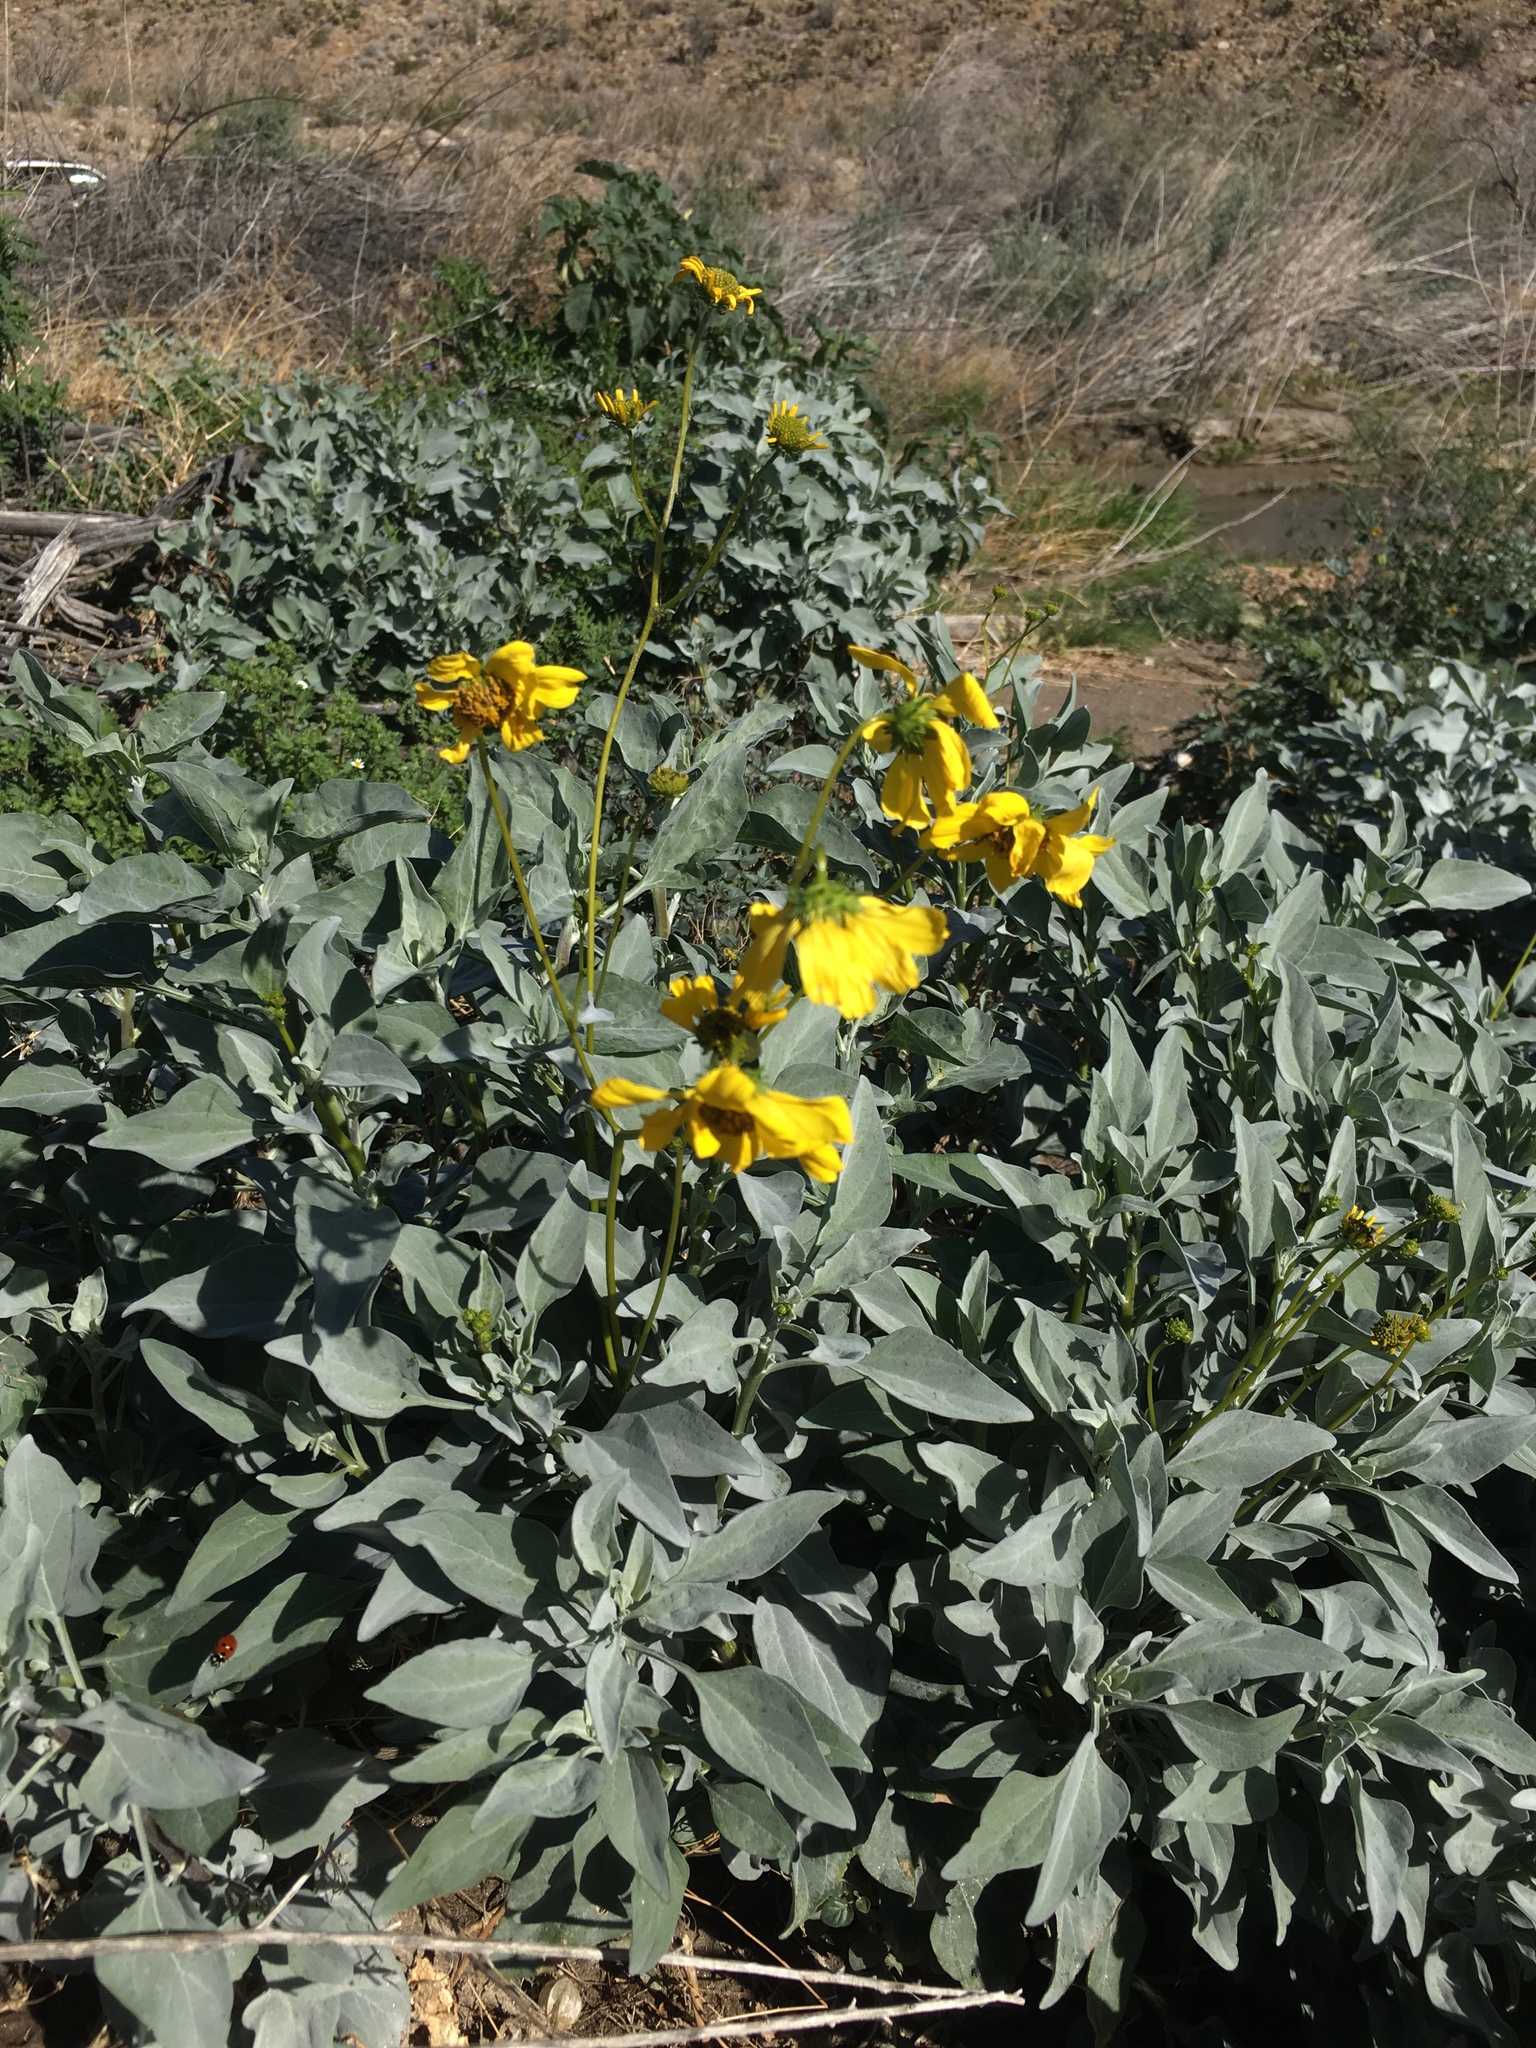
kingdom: Plantae
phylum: Tracheophyta
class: Magnoliopsida
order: Asterales
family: Asteraceae
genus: Encelia
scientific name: Encelia farinosa
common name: Brittlebush
